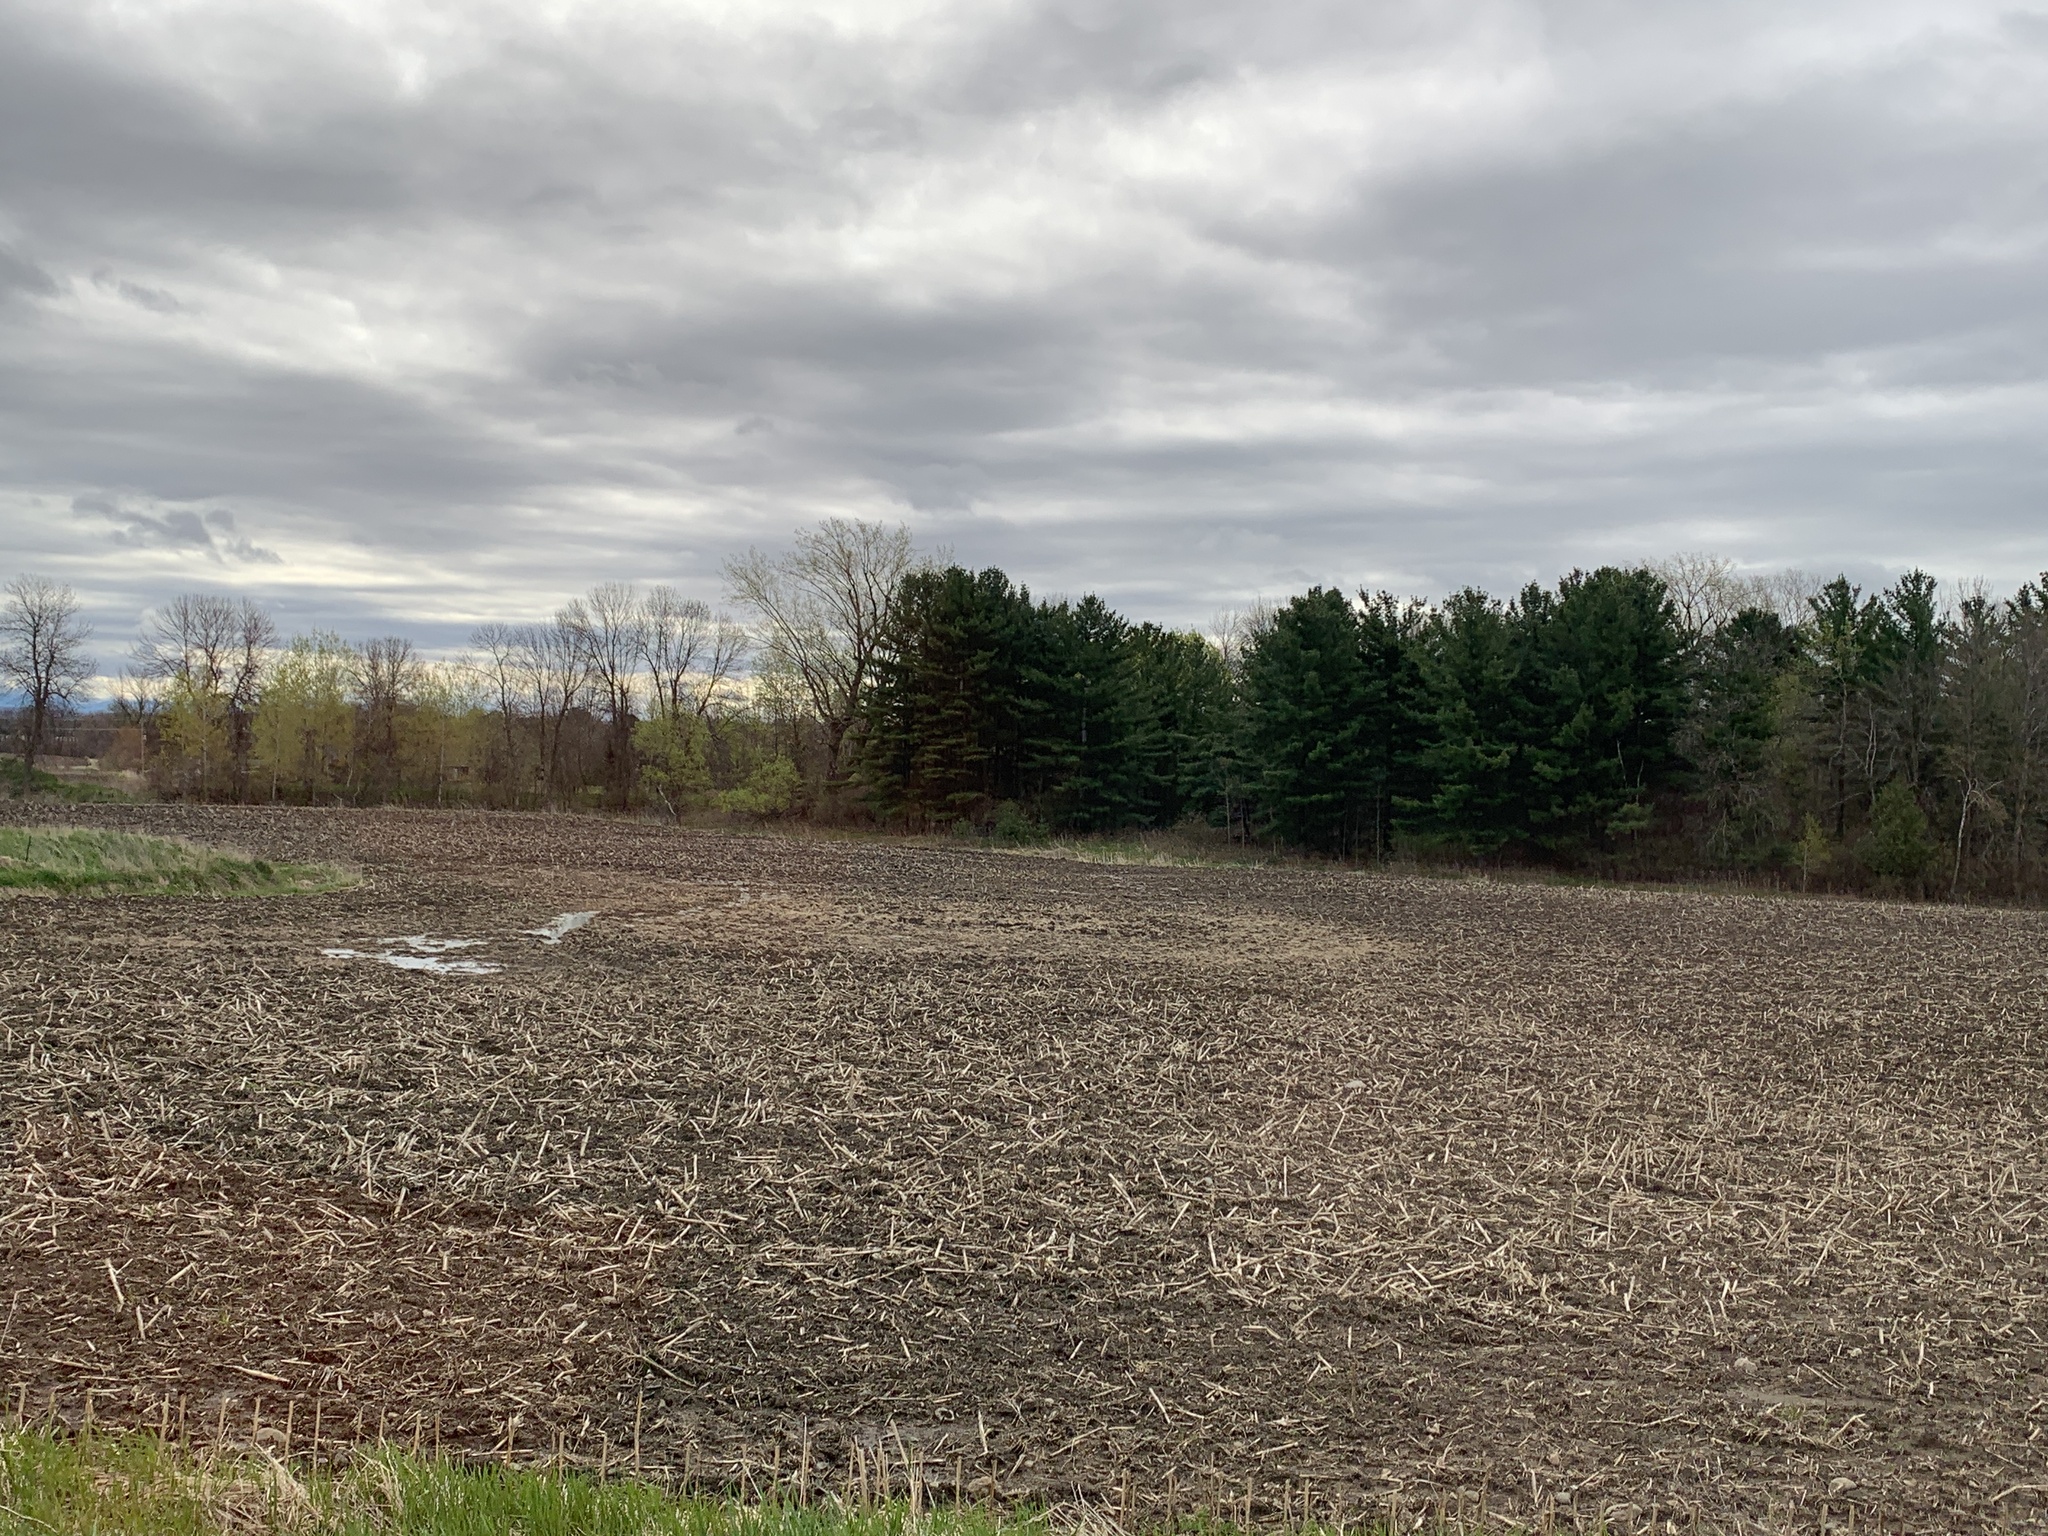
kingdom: Plantae
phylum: Tracheophyta
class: Pinopsida
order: Pinales
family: Pinaceae
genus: Pinus
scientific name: Pinus strobus
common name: Weymouth pine
